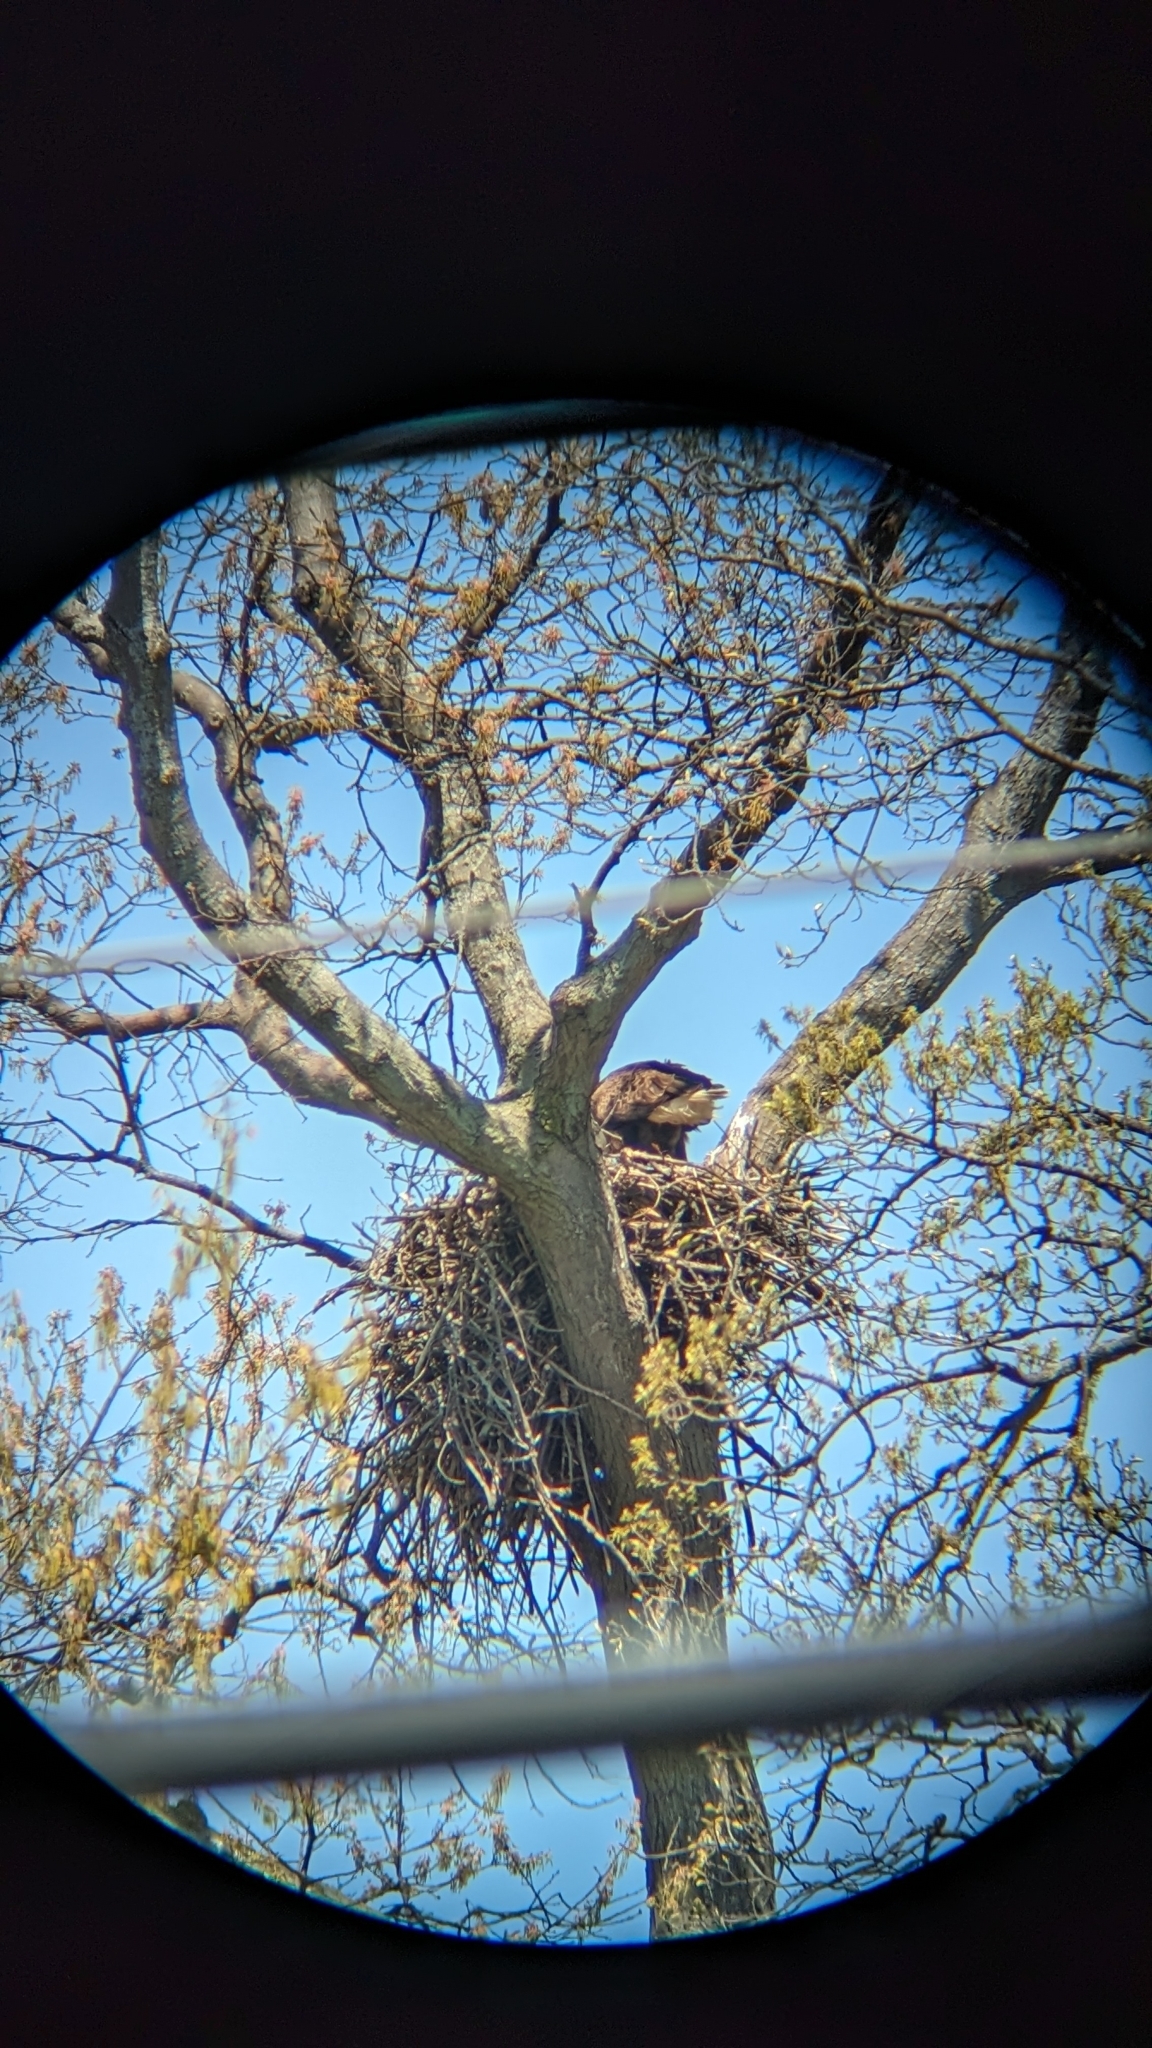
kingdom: Animalia
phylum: Chordata
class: Aves
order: Accipitriformes
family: Accipitridae
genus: Haliaeetus
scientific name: Haliaeetus leucocephalus
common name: Bald eagle
